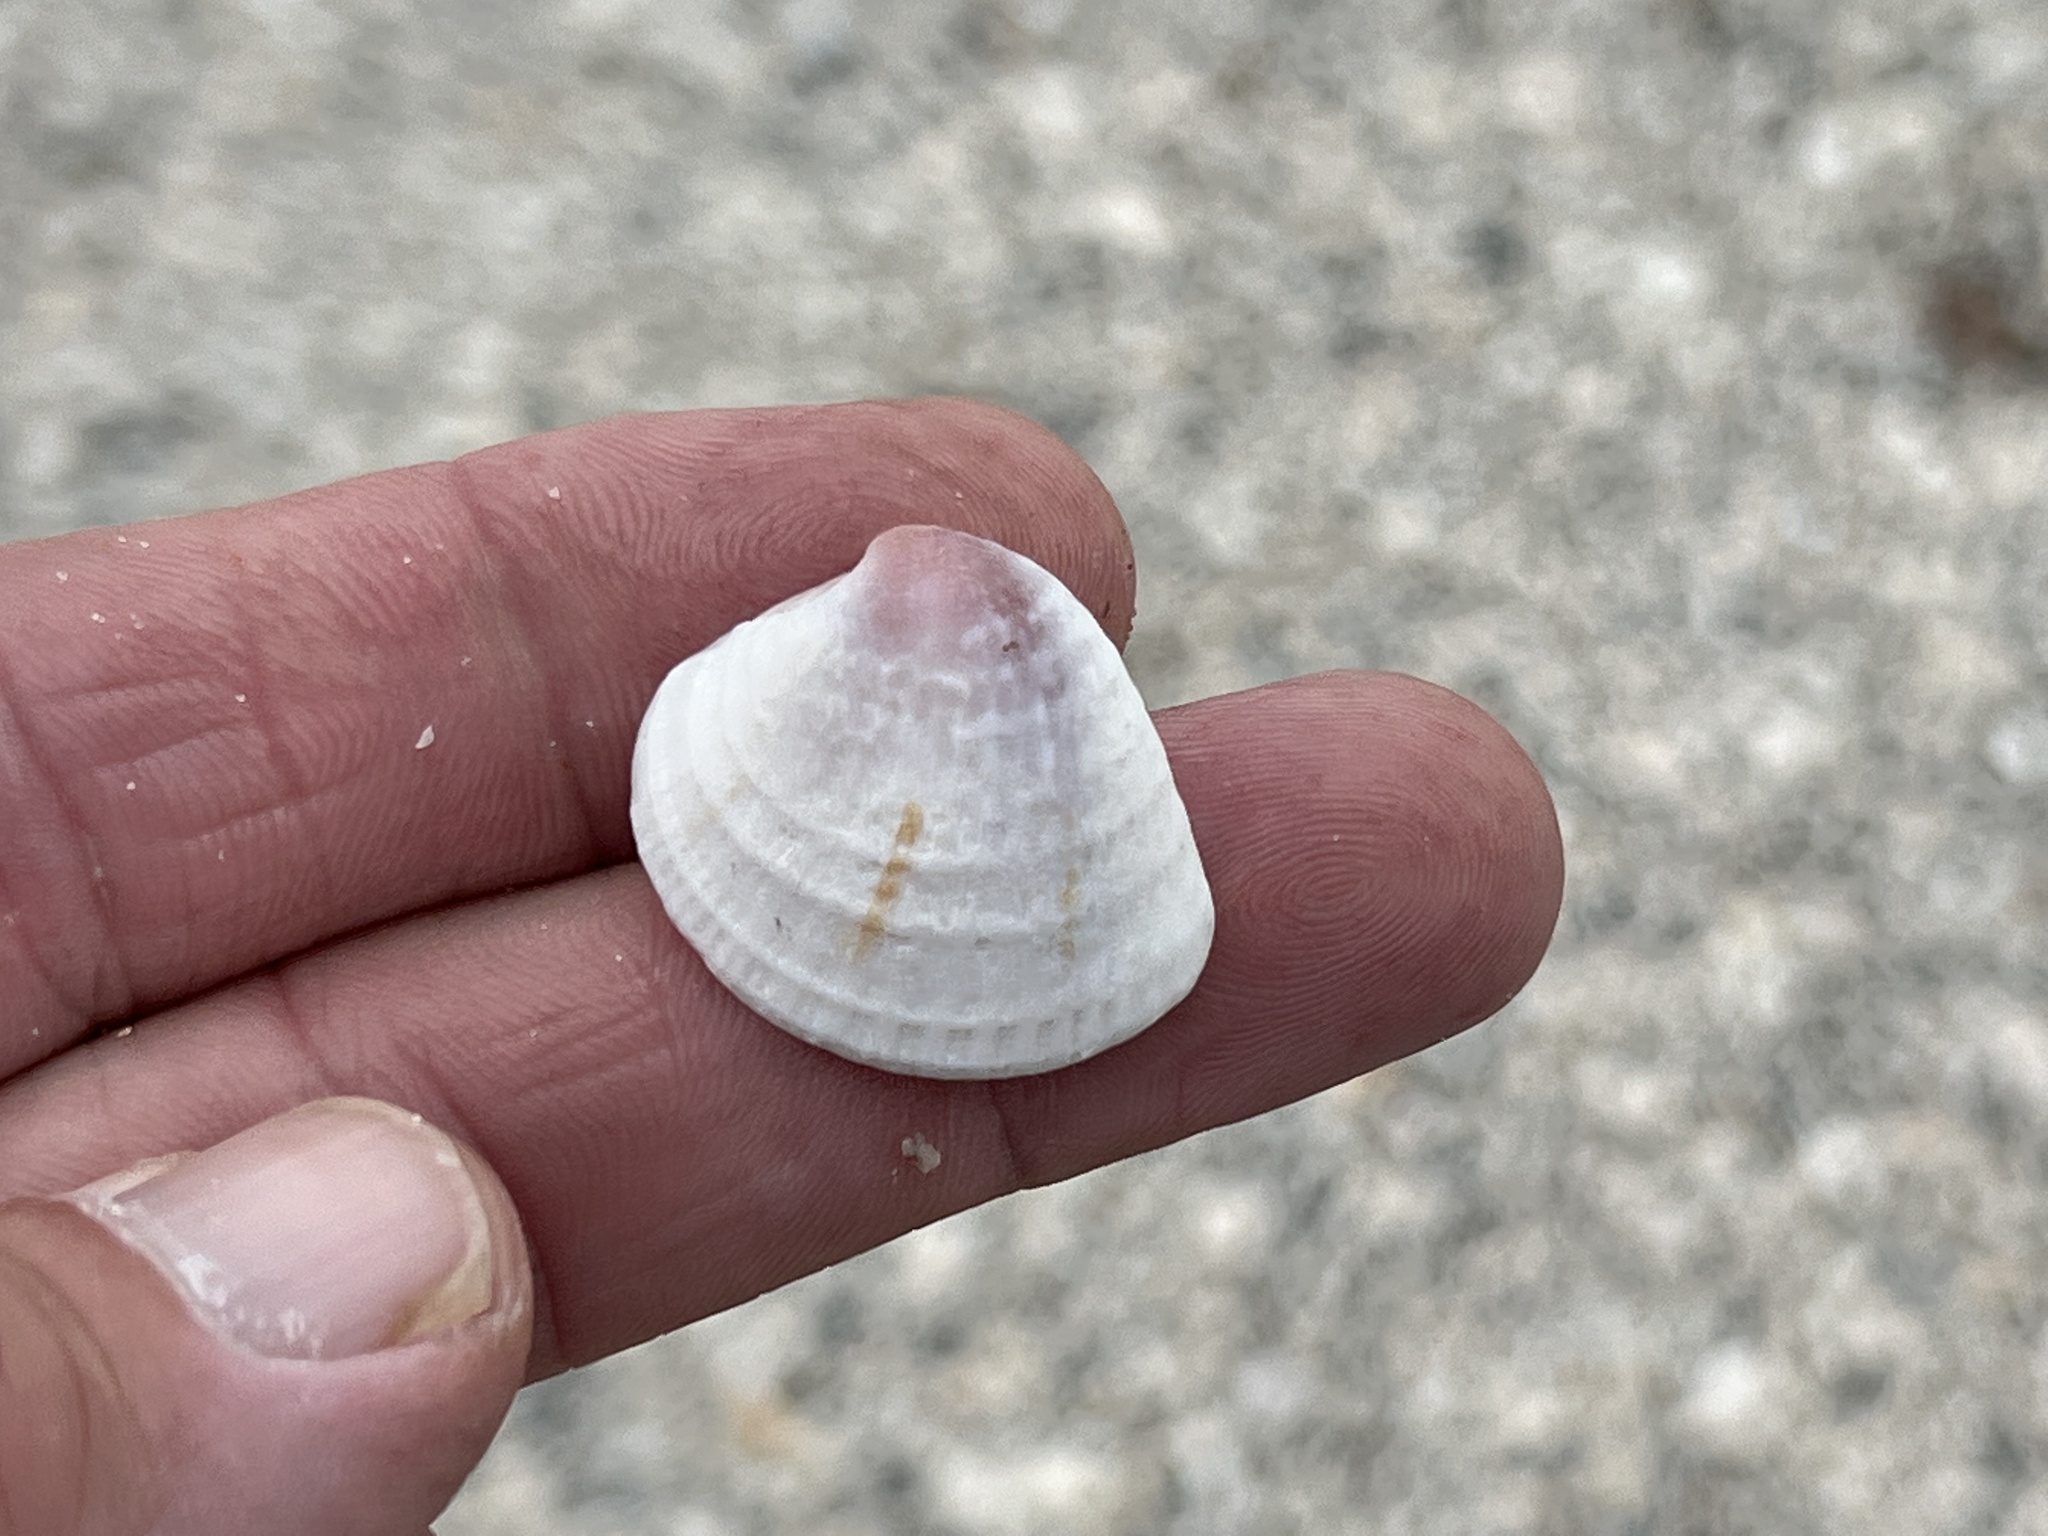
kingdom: Animalia
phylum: Mollusca
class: Bivalvia
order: Venerida
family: Veneridae
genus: Chione
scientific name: Chione elevata
